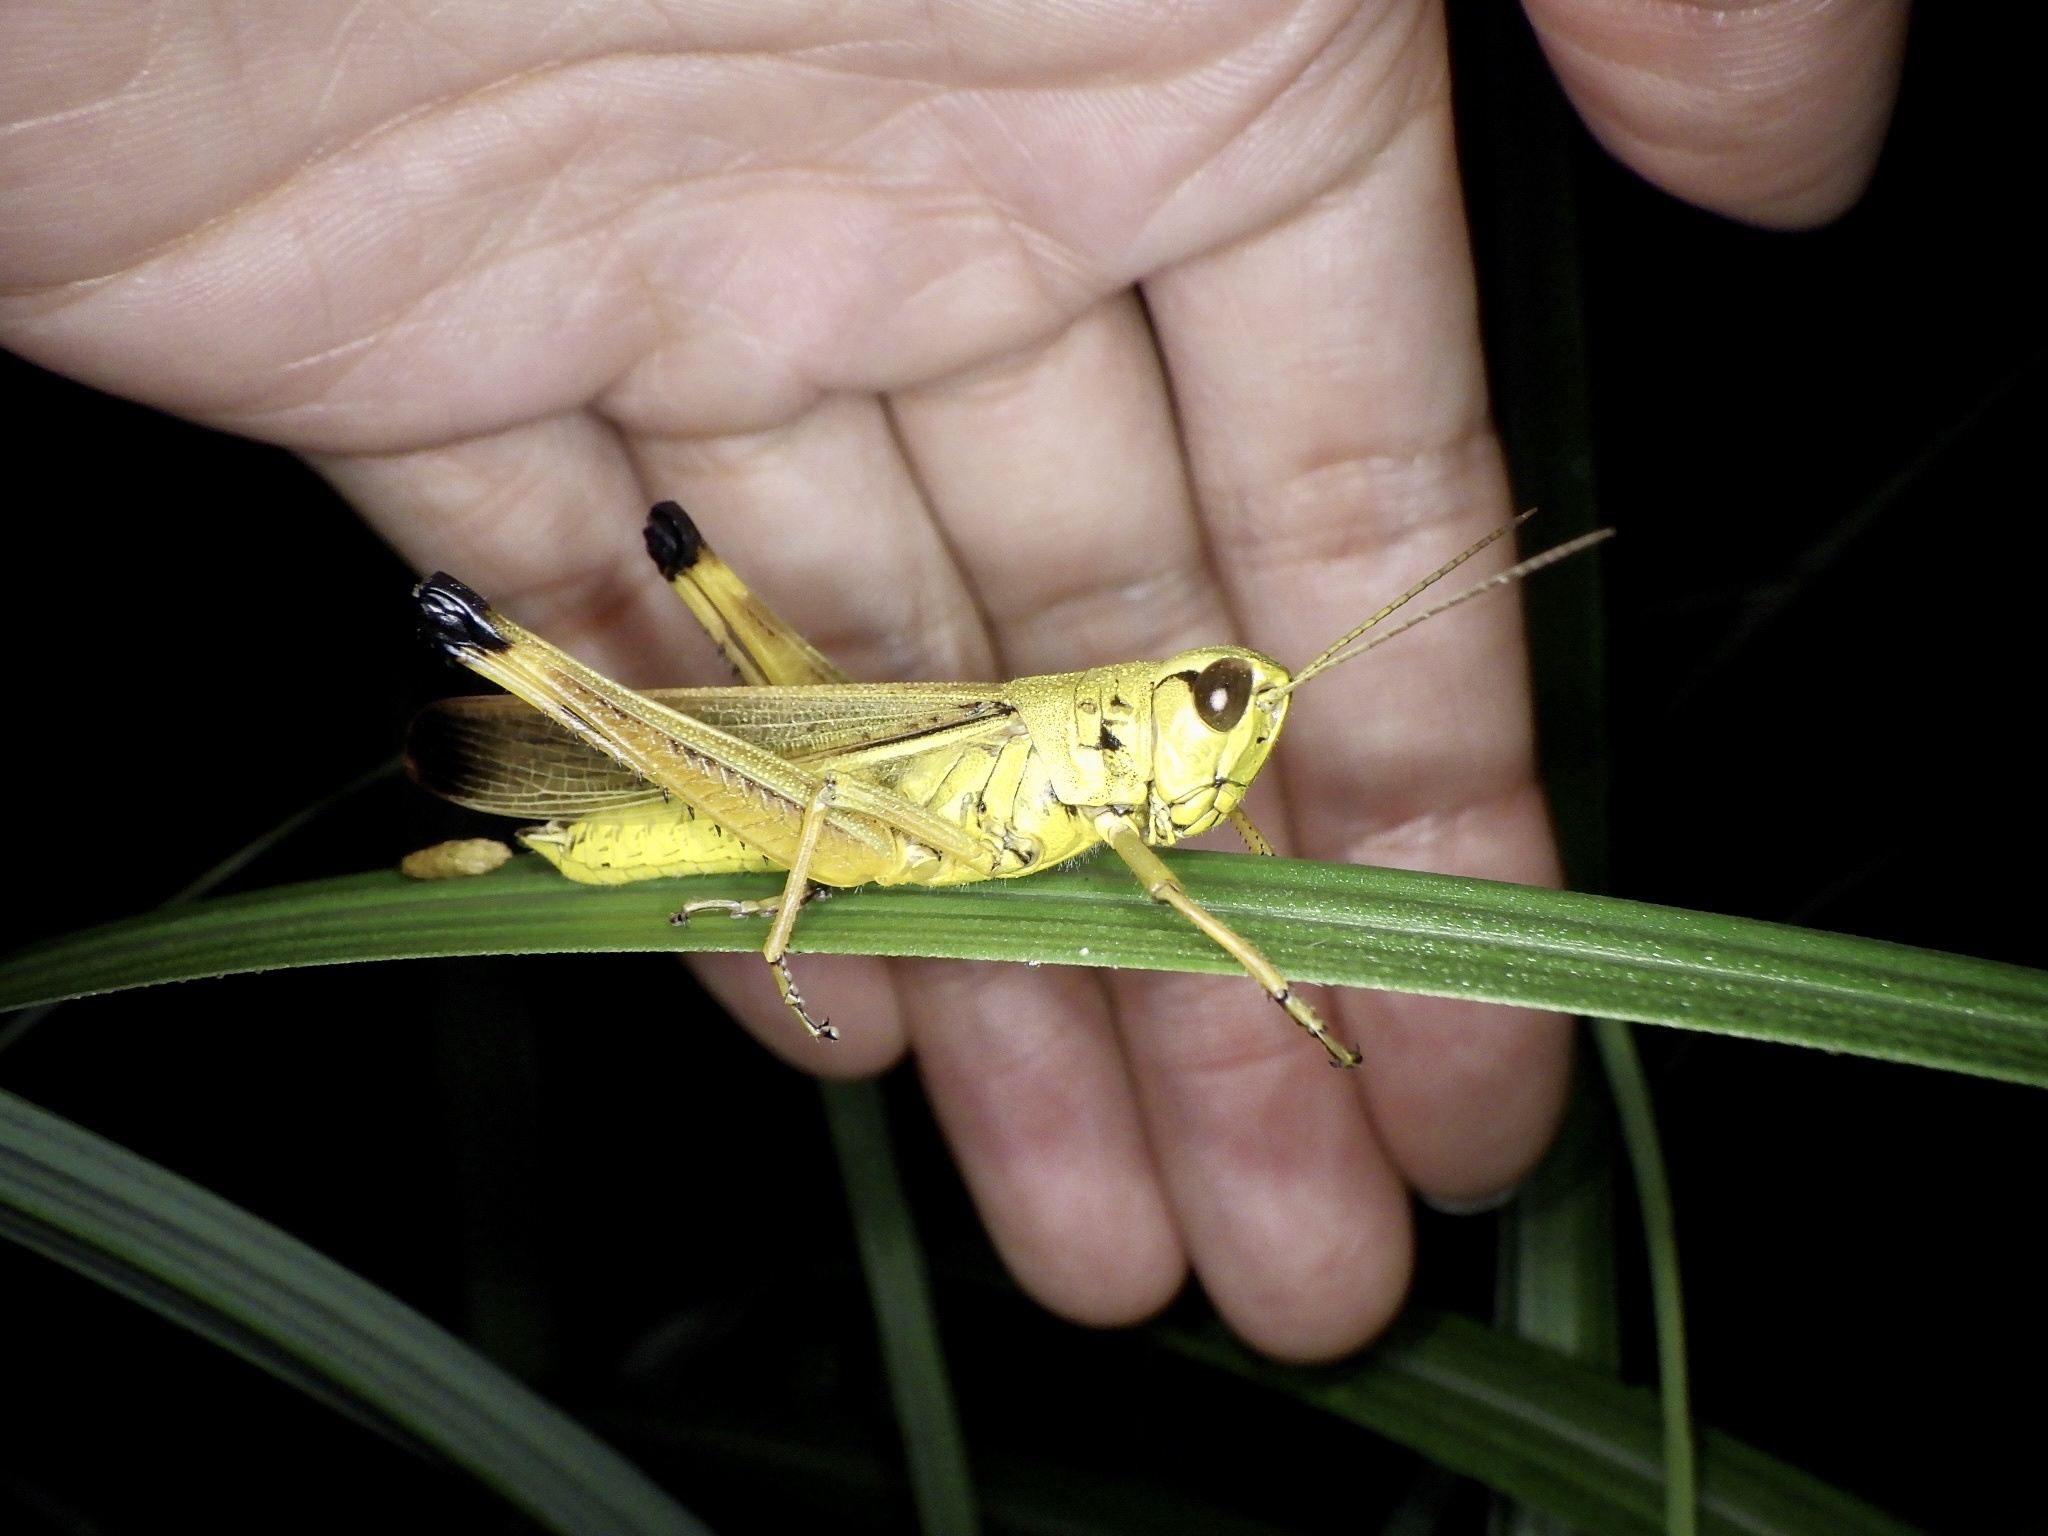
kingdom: Animalia
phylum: Arthropoda
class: Insecta
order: Orthoptera
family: Acrididae
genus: Stethophyma
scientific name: Stethophyma magister
